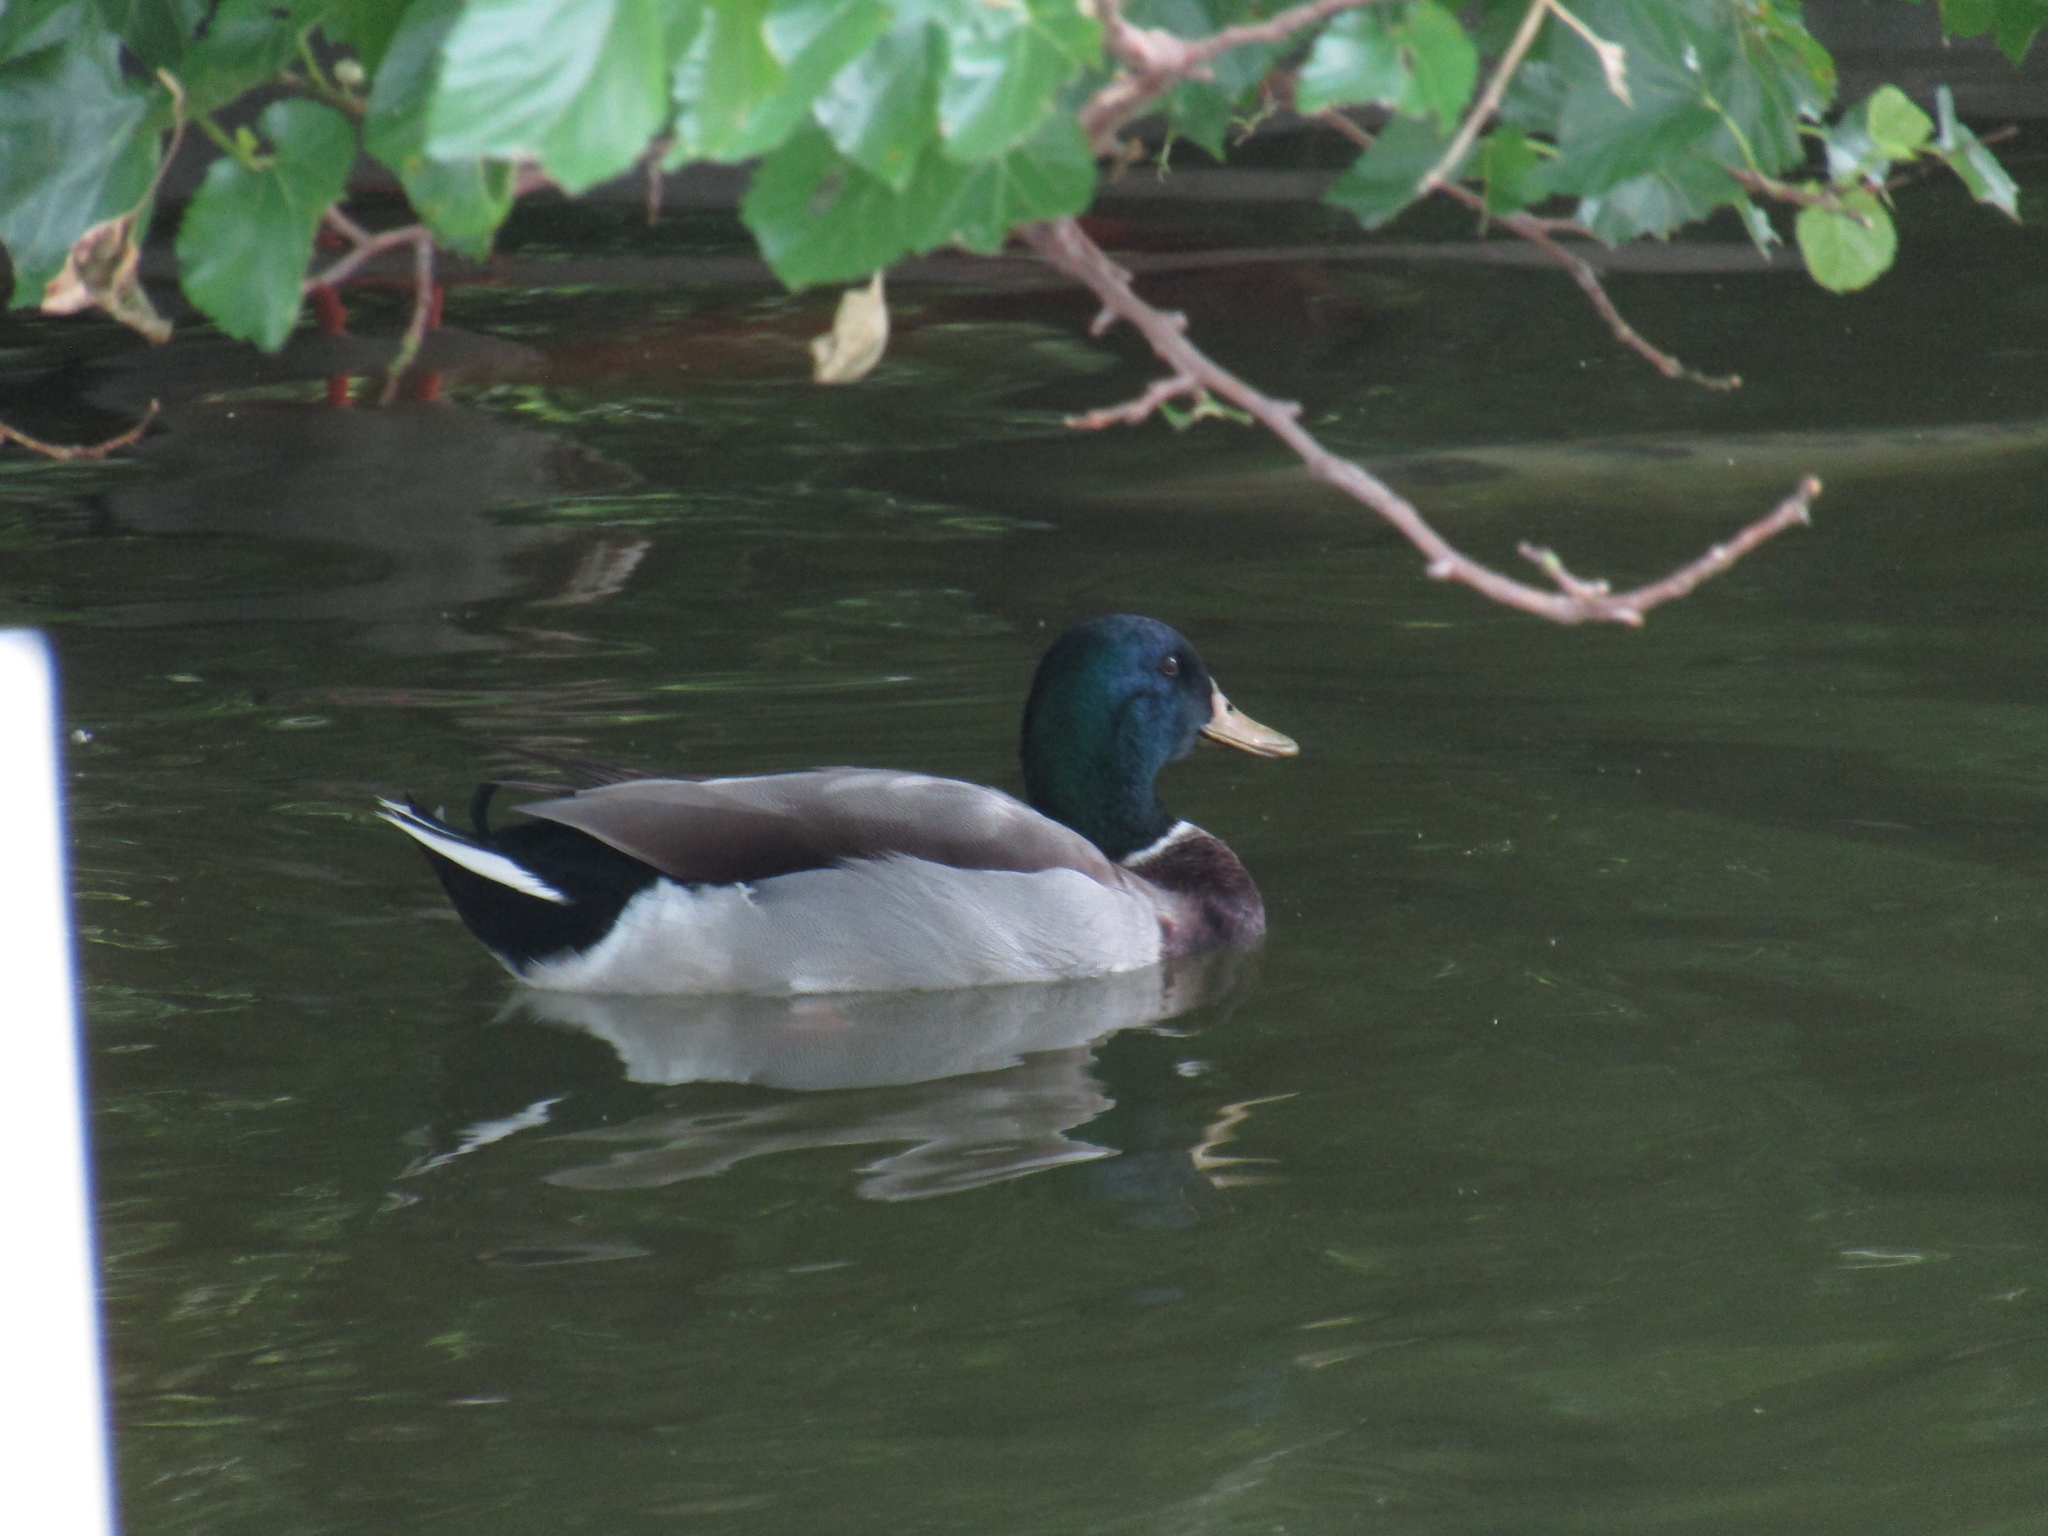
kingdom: Animalia
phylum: Chordata
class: Aves
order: Anseriformes
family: Anatidae
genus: Anas
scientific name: Anas platyrhynchos
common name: Mallard
